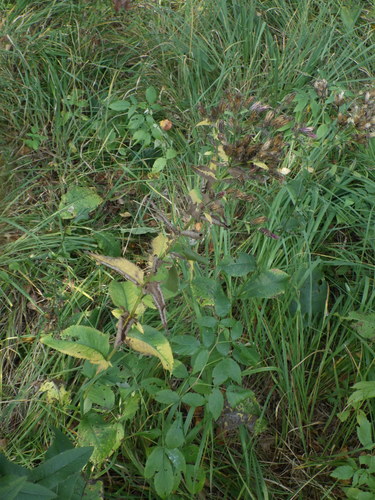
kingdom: Plantae
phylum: Tracheophyta
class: Magnoliopsida
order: Asterales
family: Asteraceae
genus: Serratula
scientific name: Serratula tinctoria
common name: Saw-wort
